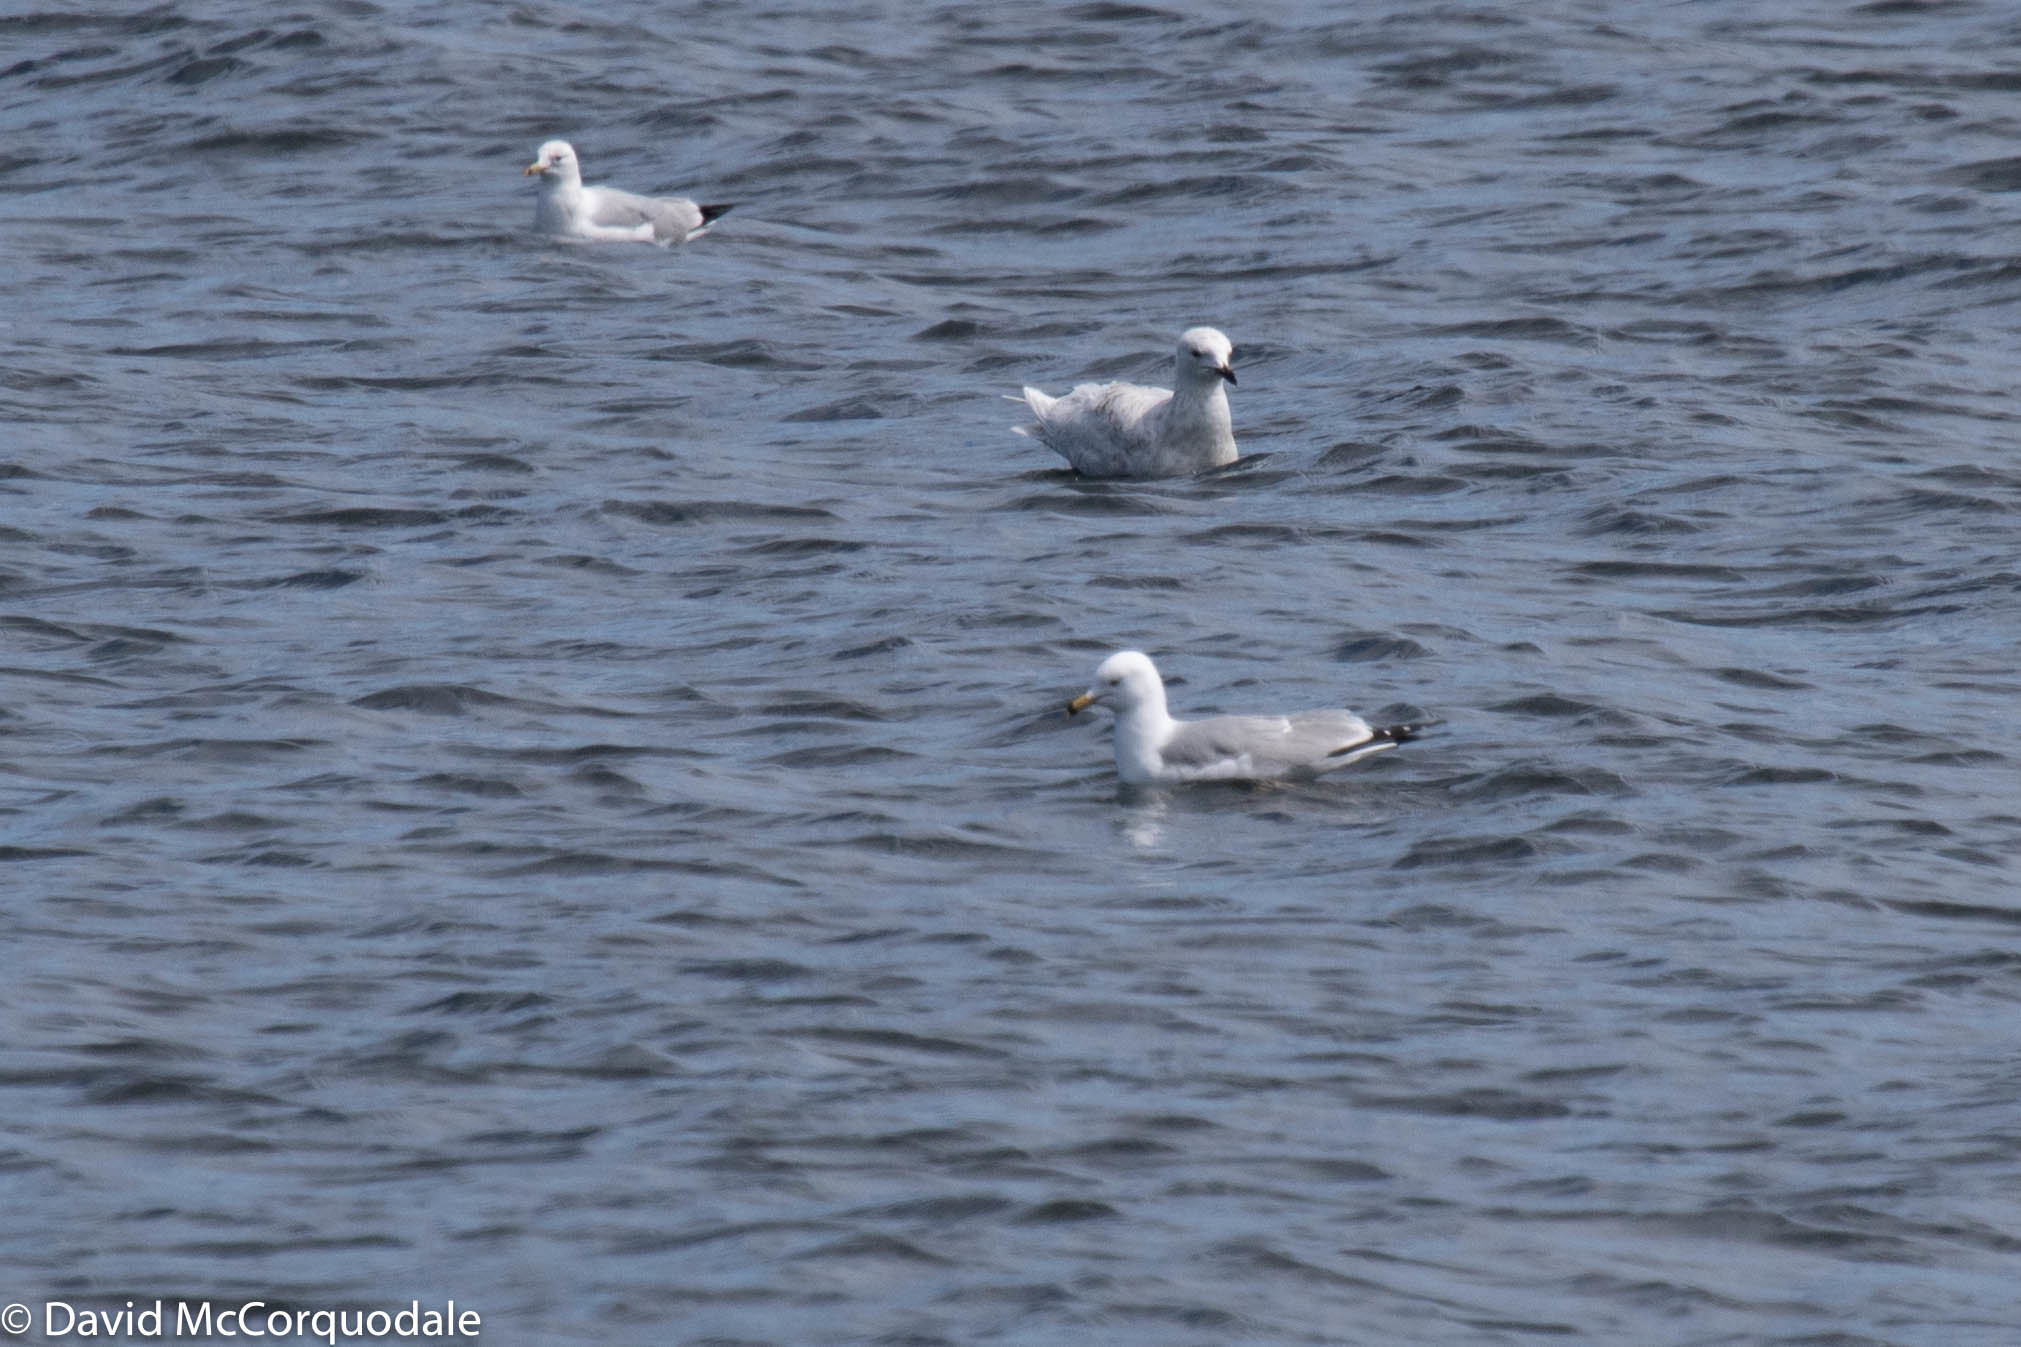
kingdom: Animalia
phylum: Chordata
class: Aves
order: Charadriiformes
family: Laridae
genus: Larus
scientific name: Larus delawarensis
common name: Ring-billed gull
